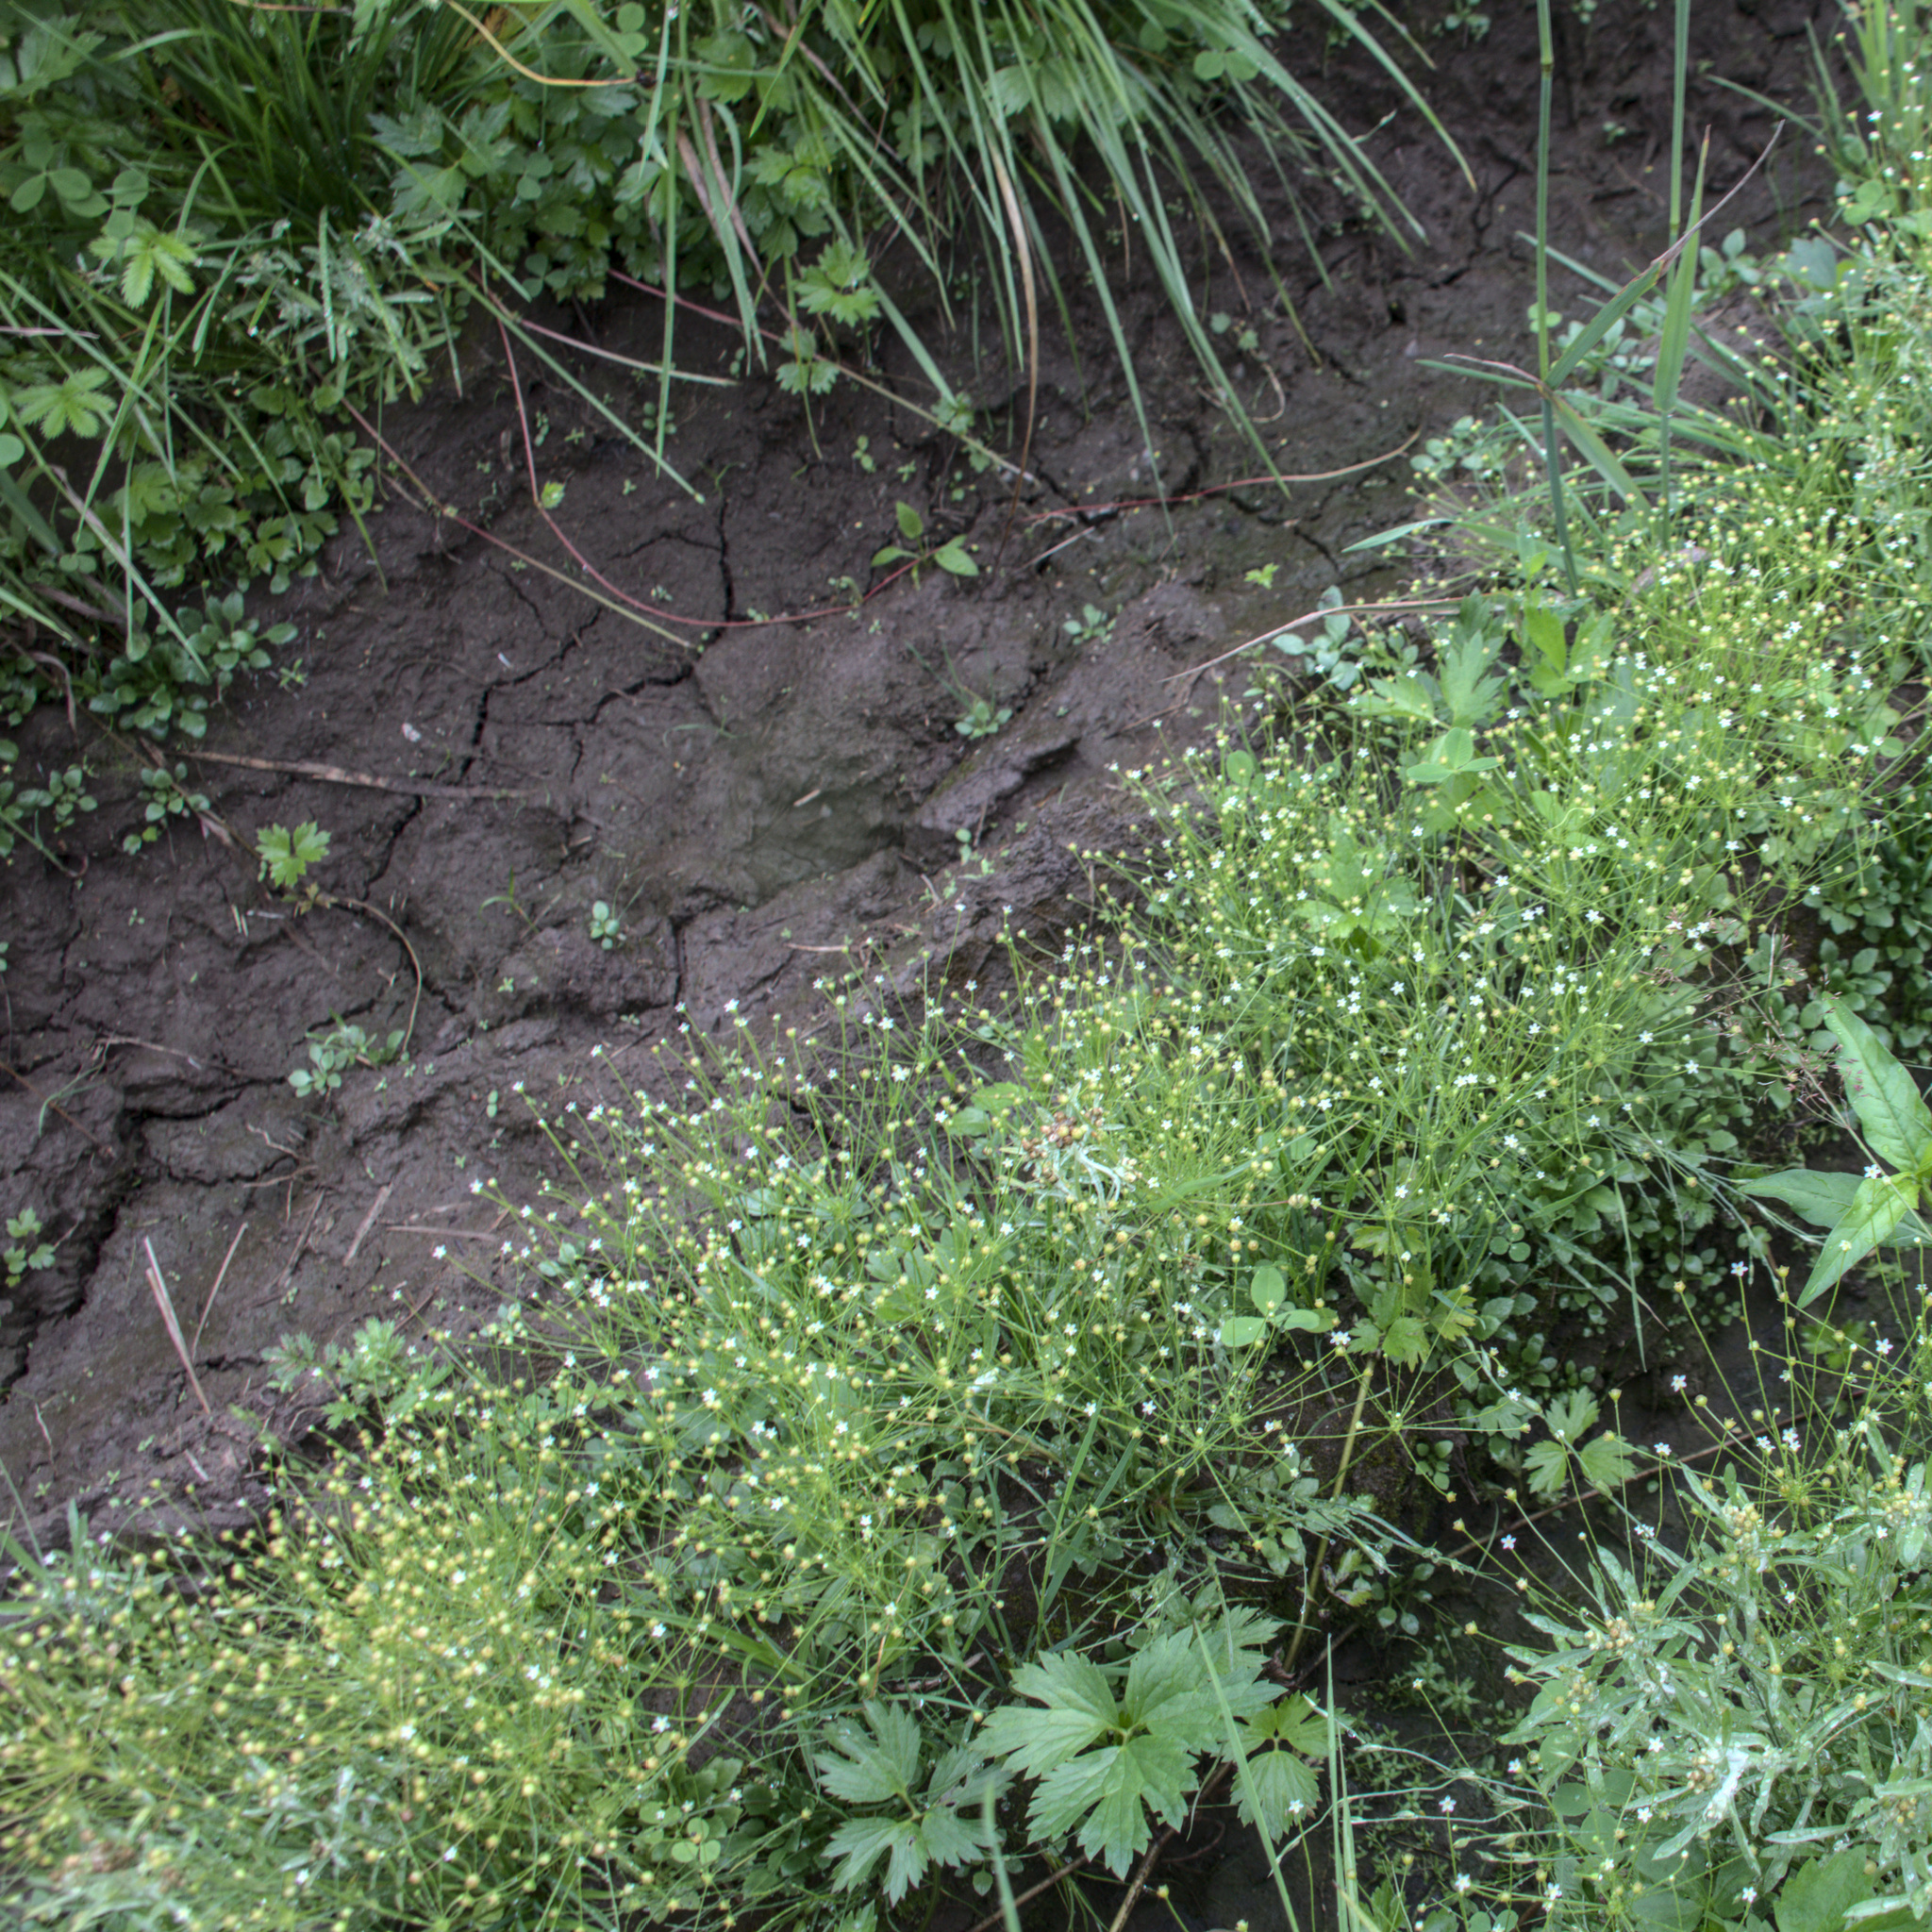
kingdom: Plantae
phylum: Tracheophyta
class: Magnoliopsida
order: Ericales
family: Primulaceae
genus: Androsace
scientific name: Androsace filiformis
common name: Filiform rock jasmine
